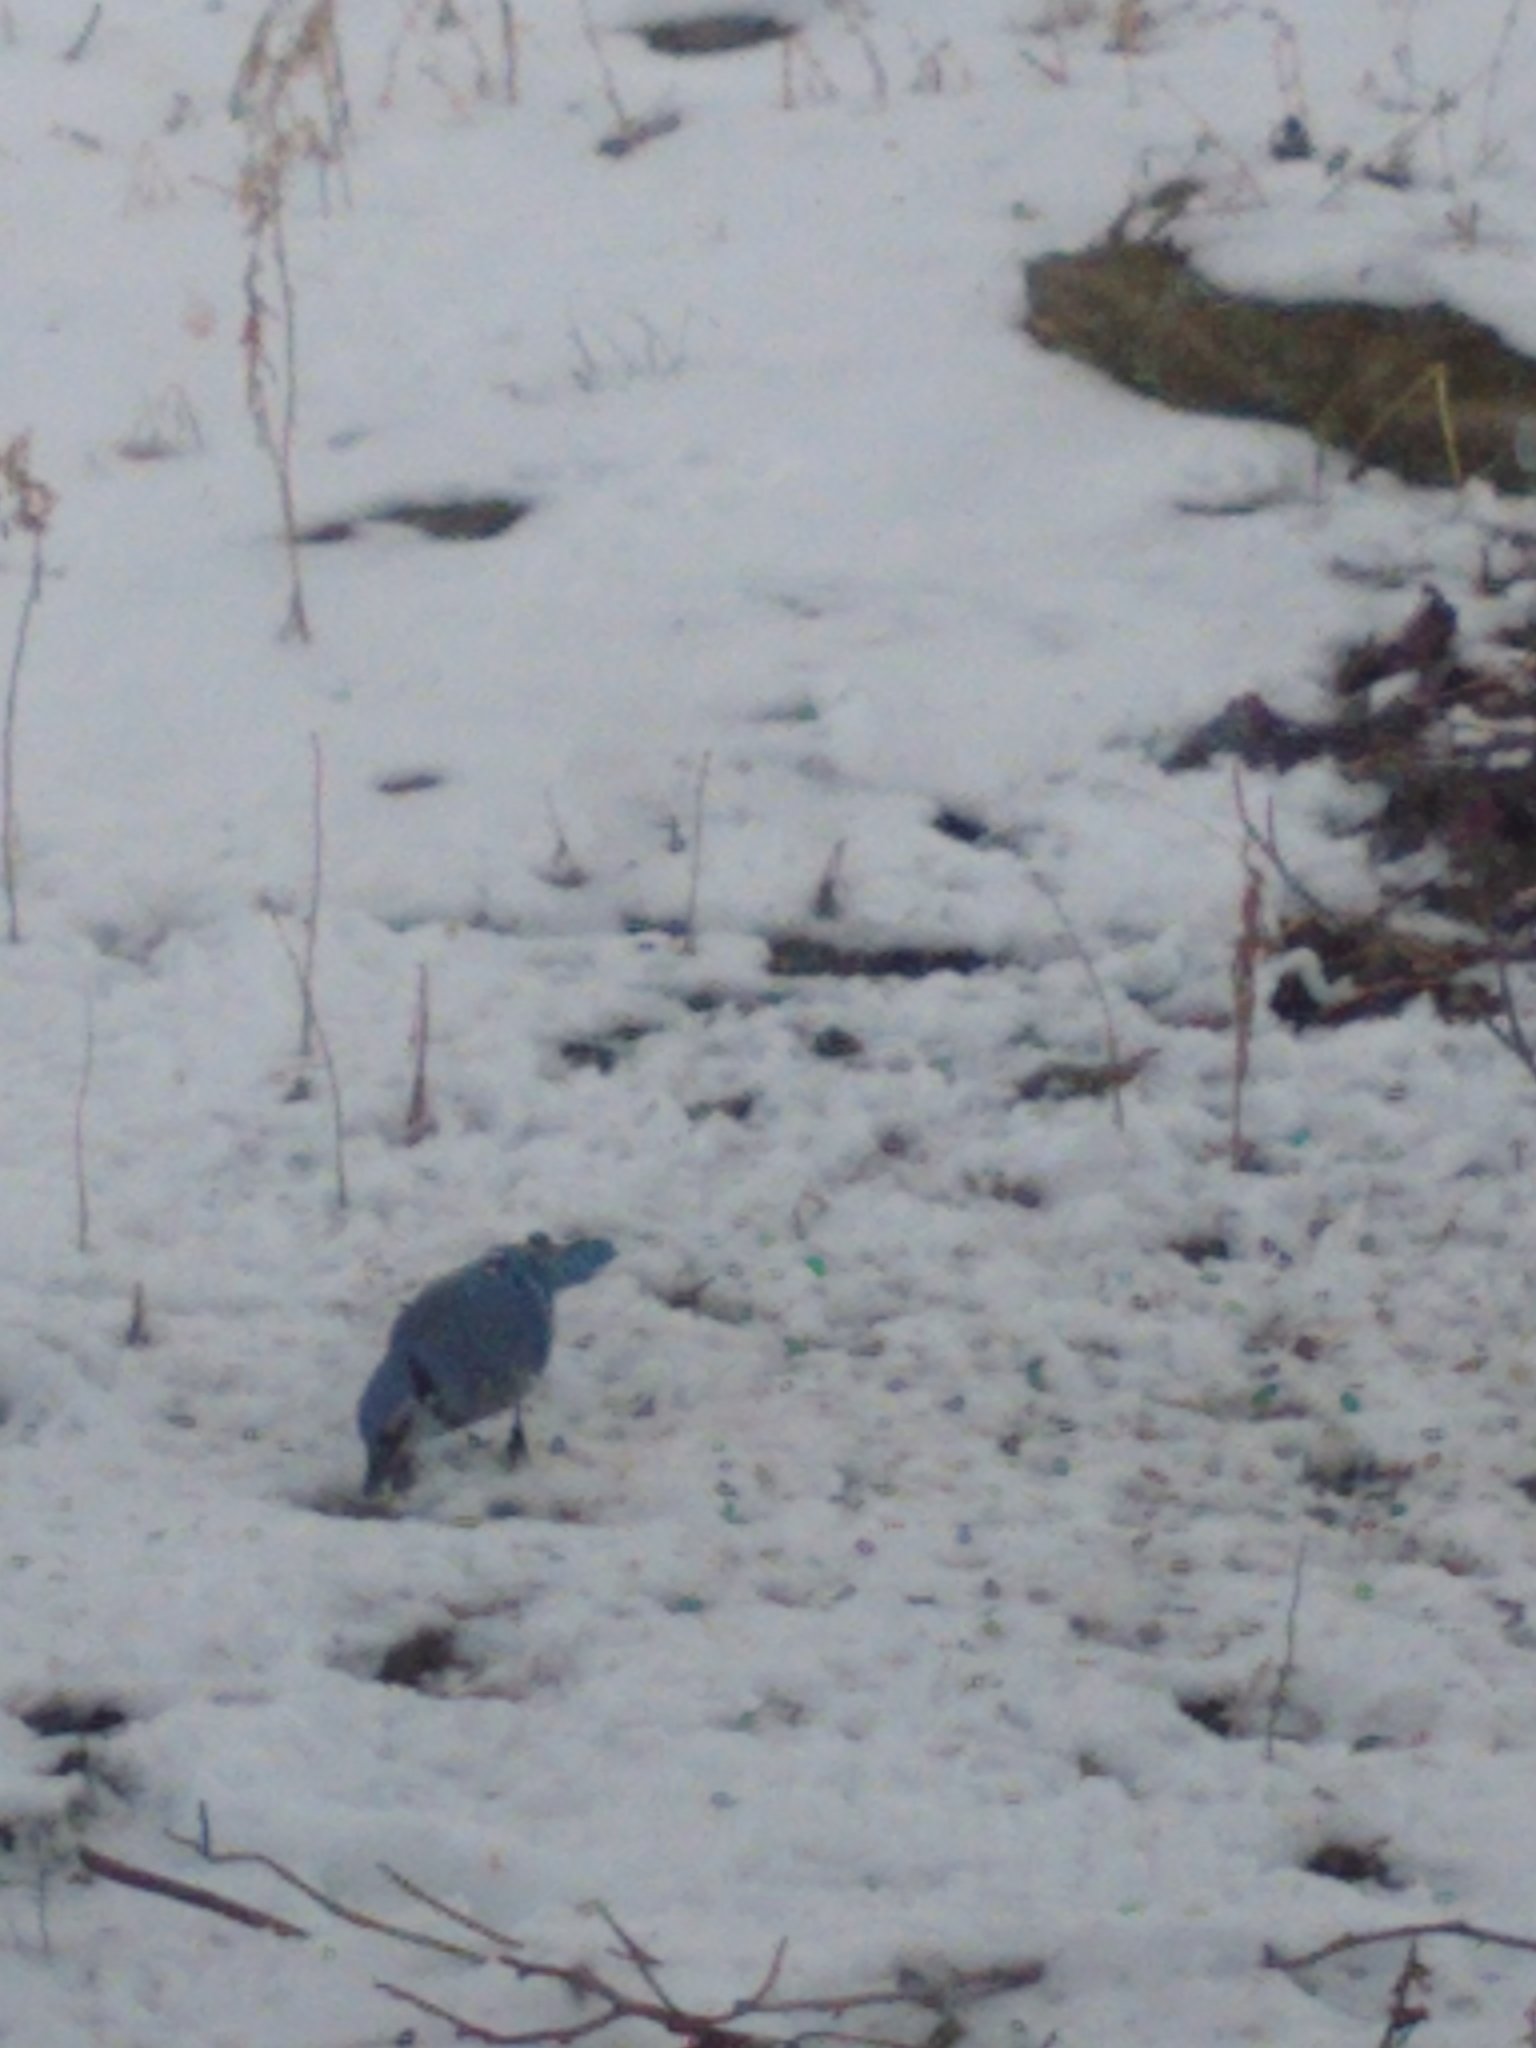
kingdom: Animalia
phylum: Chordata
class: Aves
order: Passeriformes
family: Corvidae
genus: Cyanocitta
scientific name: Cyanocitta cristata
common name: Blue jay
